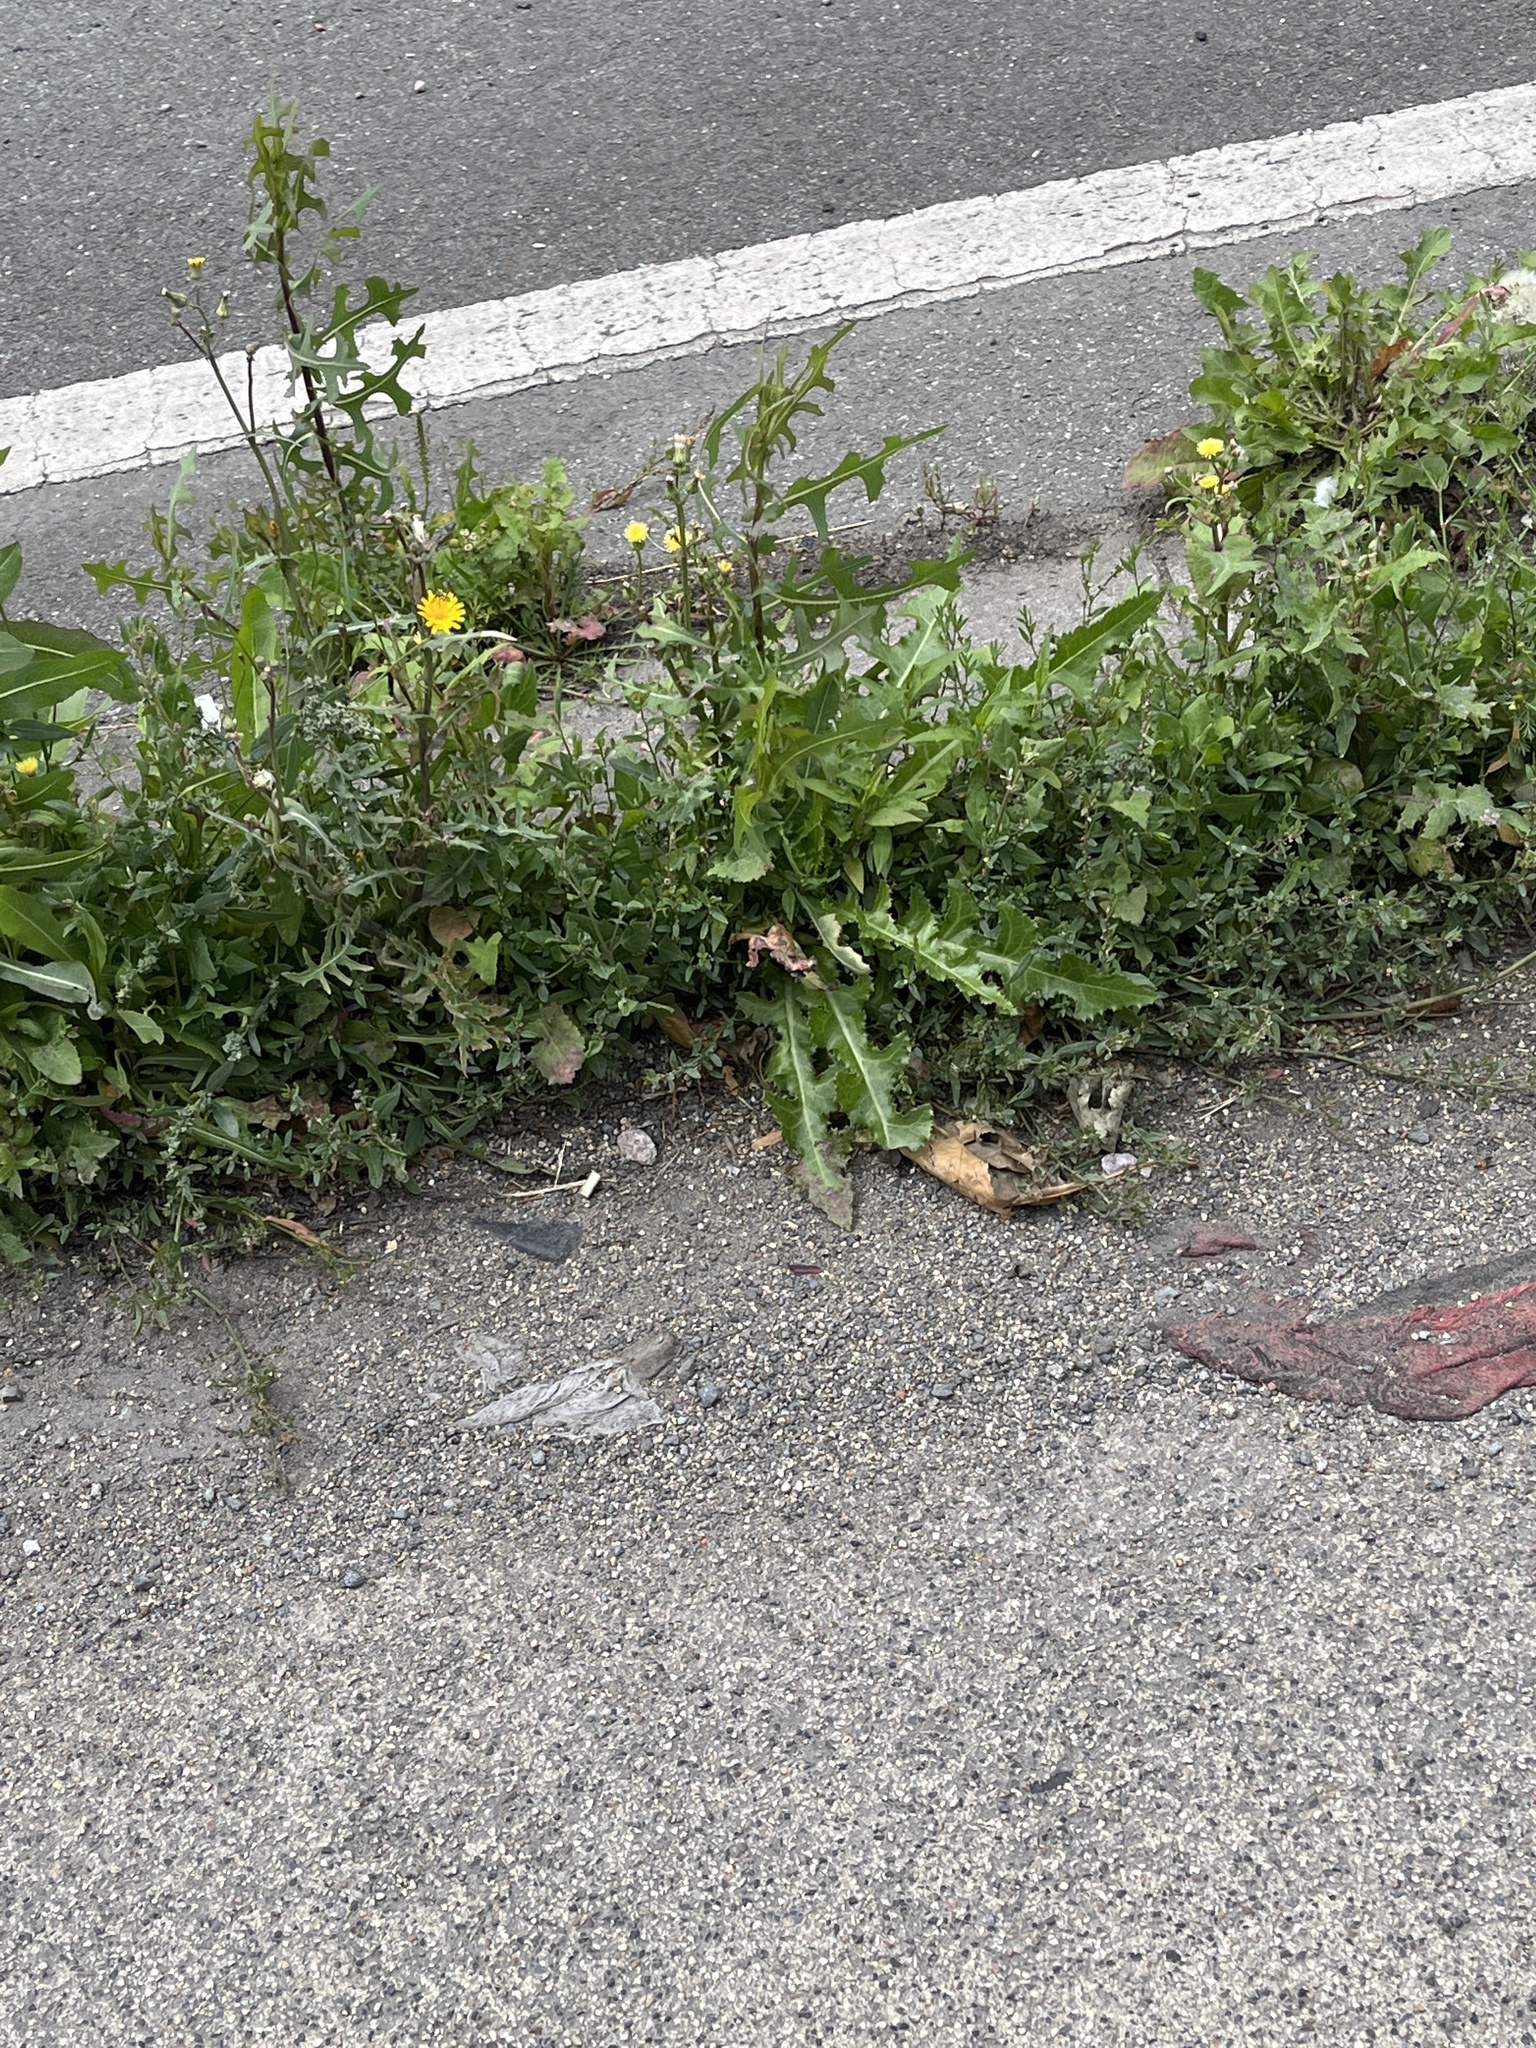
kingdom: Plantae
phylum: Tracheophyta
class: Magnoliopsida
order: Asterales
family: Asteraceae
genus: Lactuca
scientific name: Lactuca serriola
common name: Prickly lettuce
